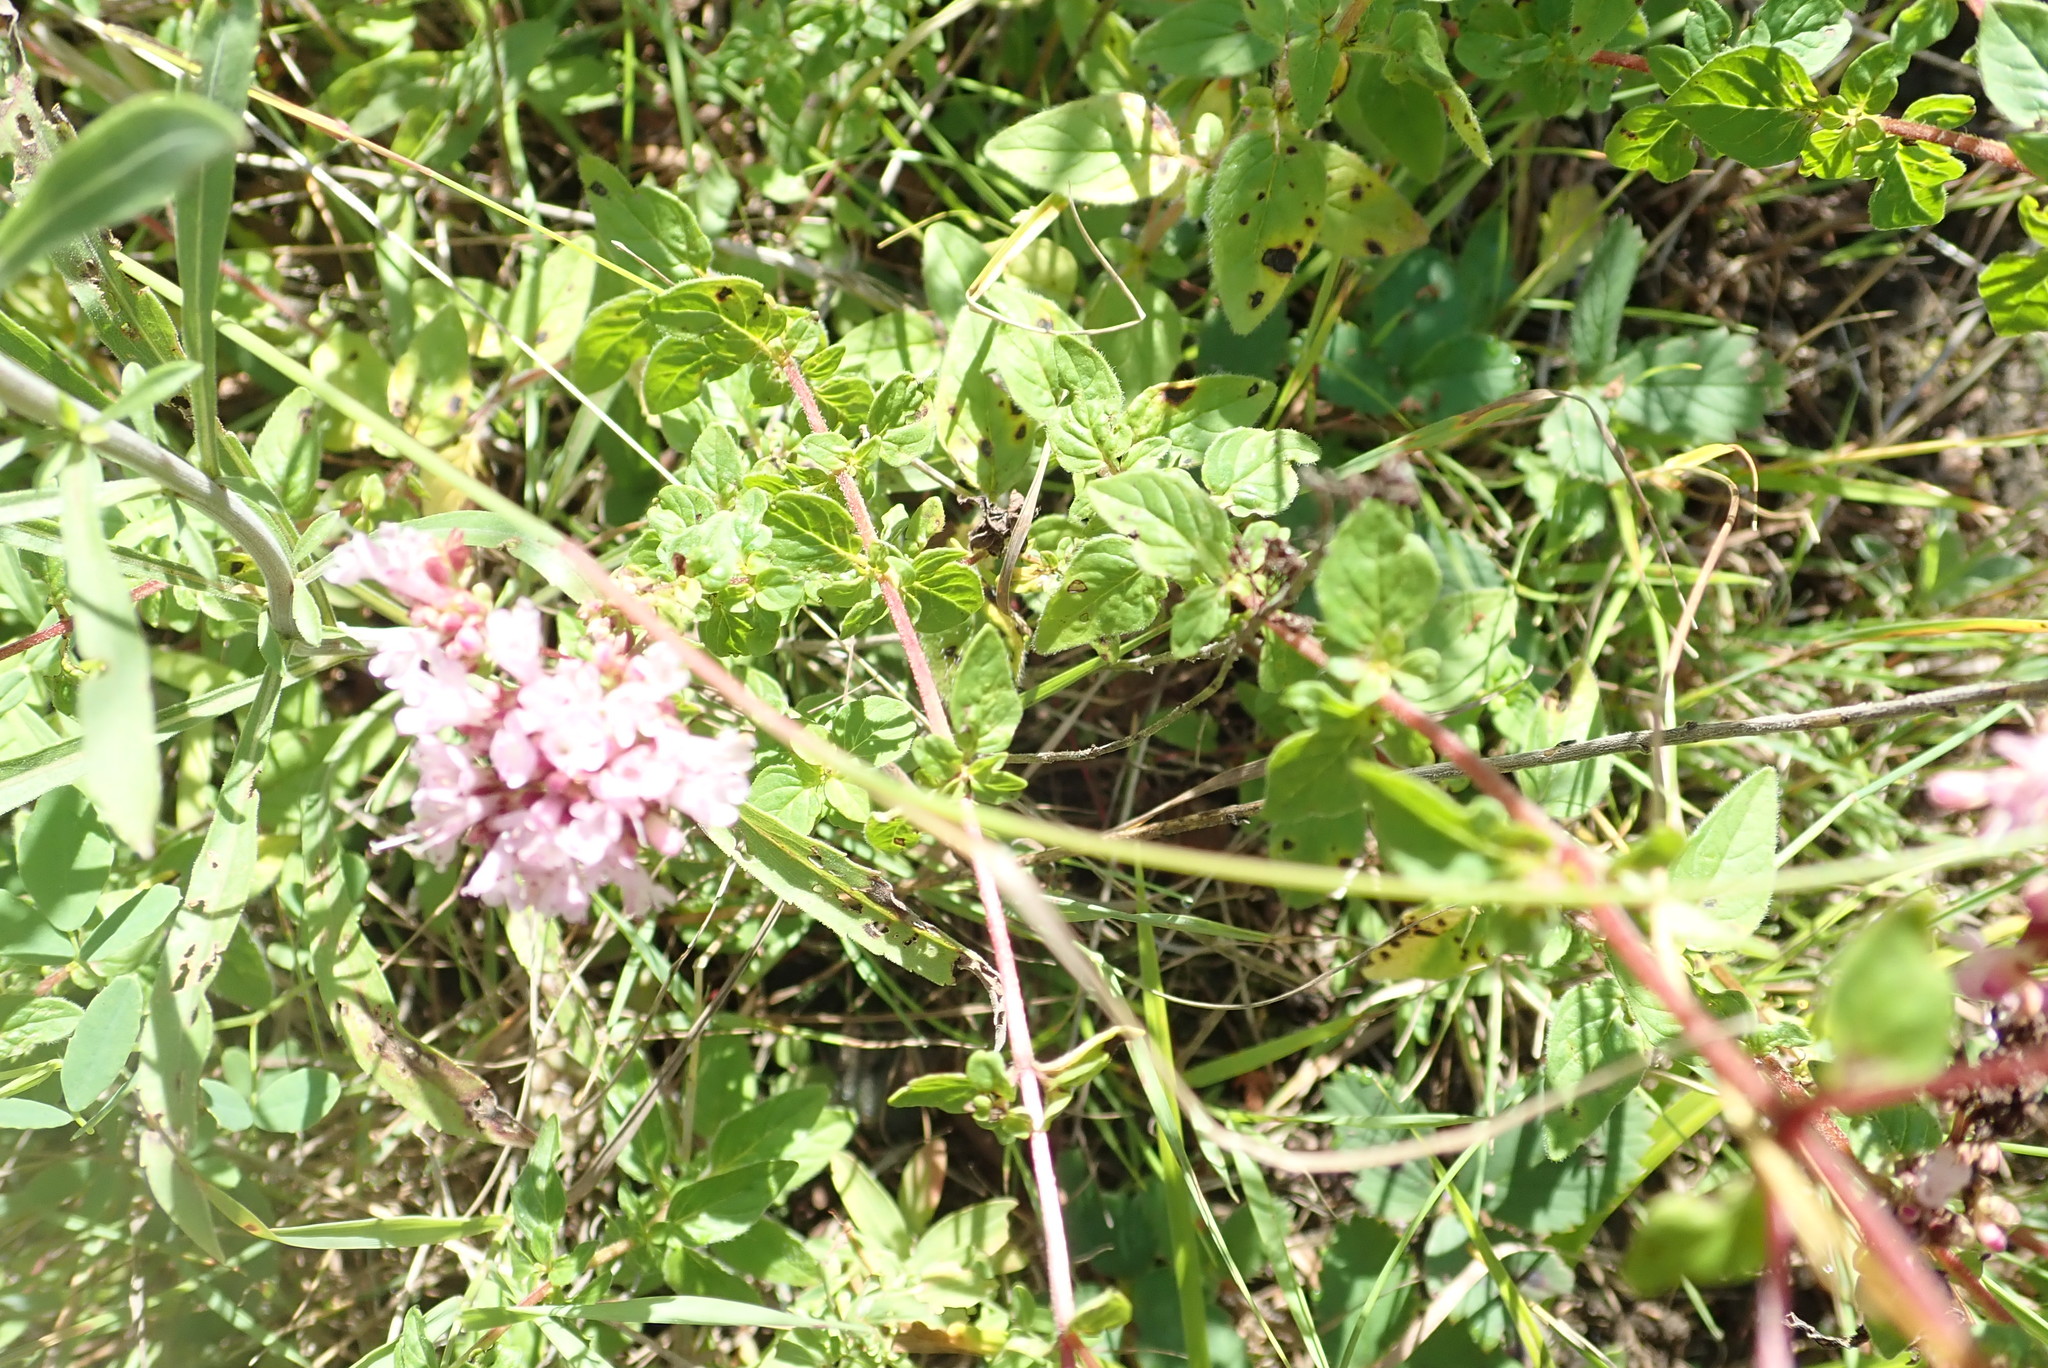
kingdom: Plantae
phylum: Tracheophyta
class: Magnoliopsida
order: Lamiales
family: Lamiaceae
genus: Origanum
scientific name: Origanum vulgare
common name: Wild marjoram
